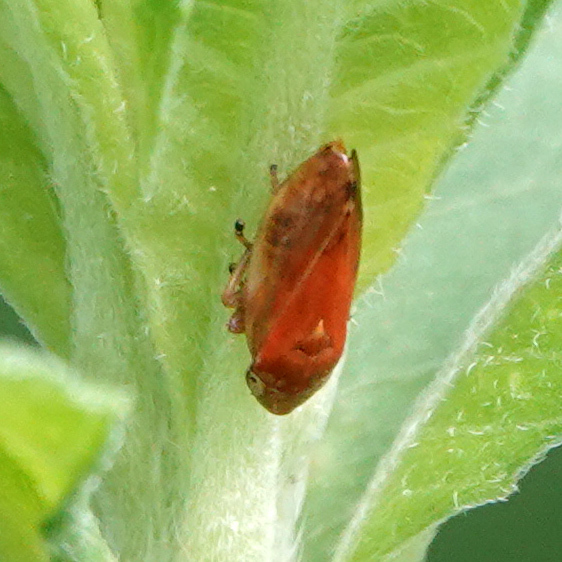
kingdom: Animalia
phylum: Arthropoda
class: Insecta
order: Hemiptera
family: Aphrophoridae
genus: Philaenus
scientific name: Philaenus spumarius
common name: Meadow spittlebug
